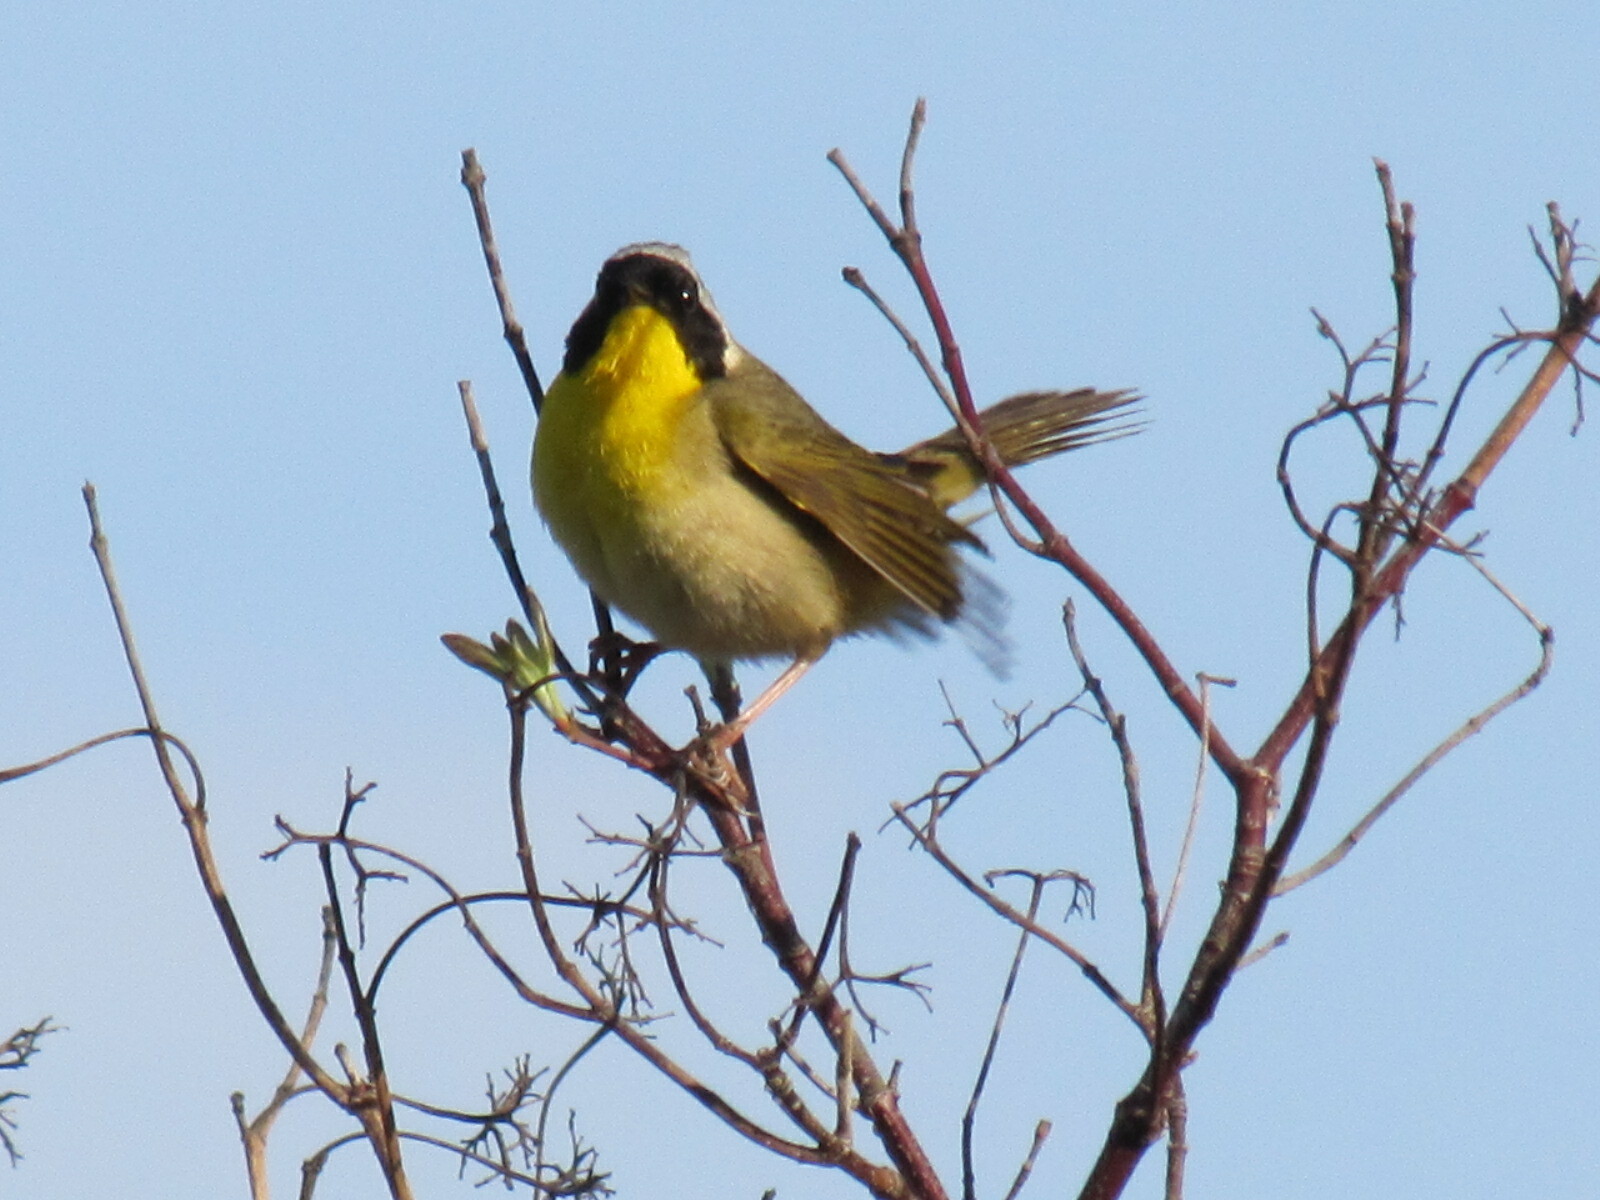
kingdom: Animalia
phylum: Chordata
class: Aves
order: Passeriformes
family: Parulidae
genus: Geothlypis
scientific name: Geothlypis trichas
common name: Common yellowthroat
